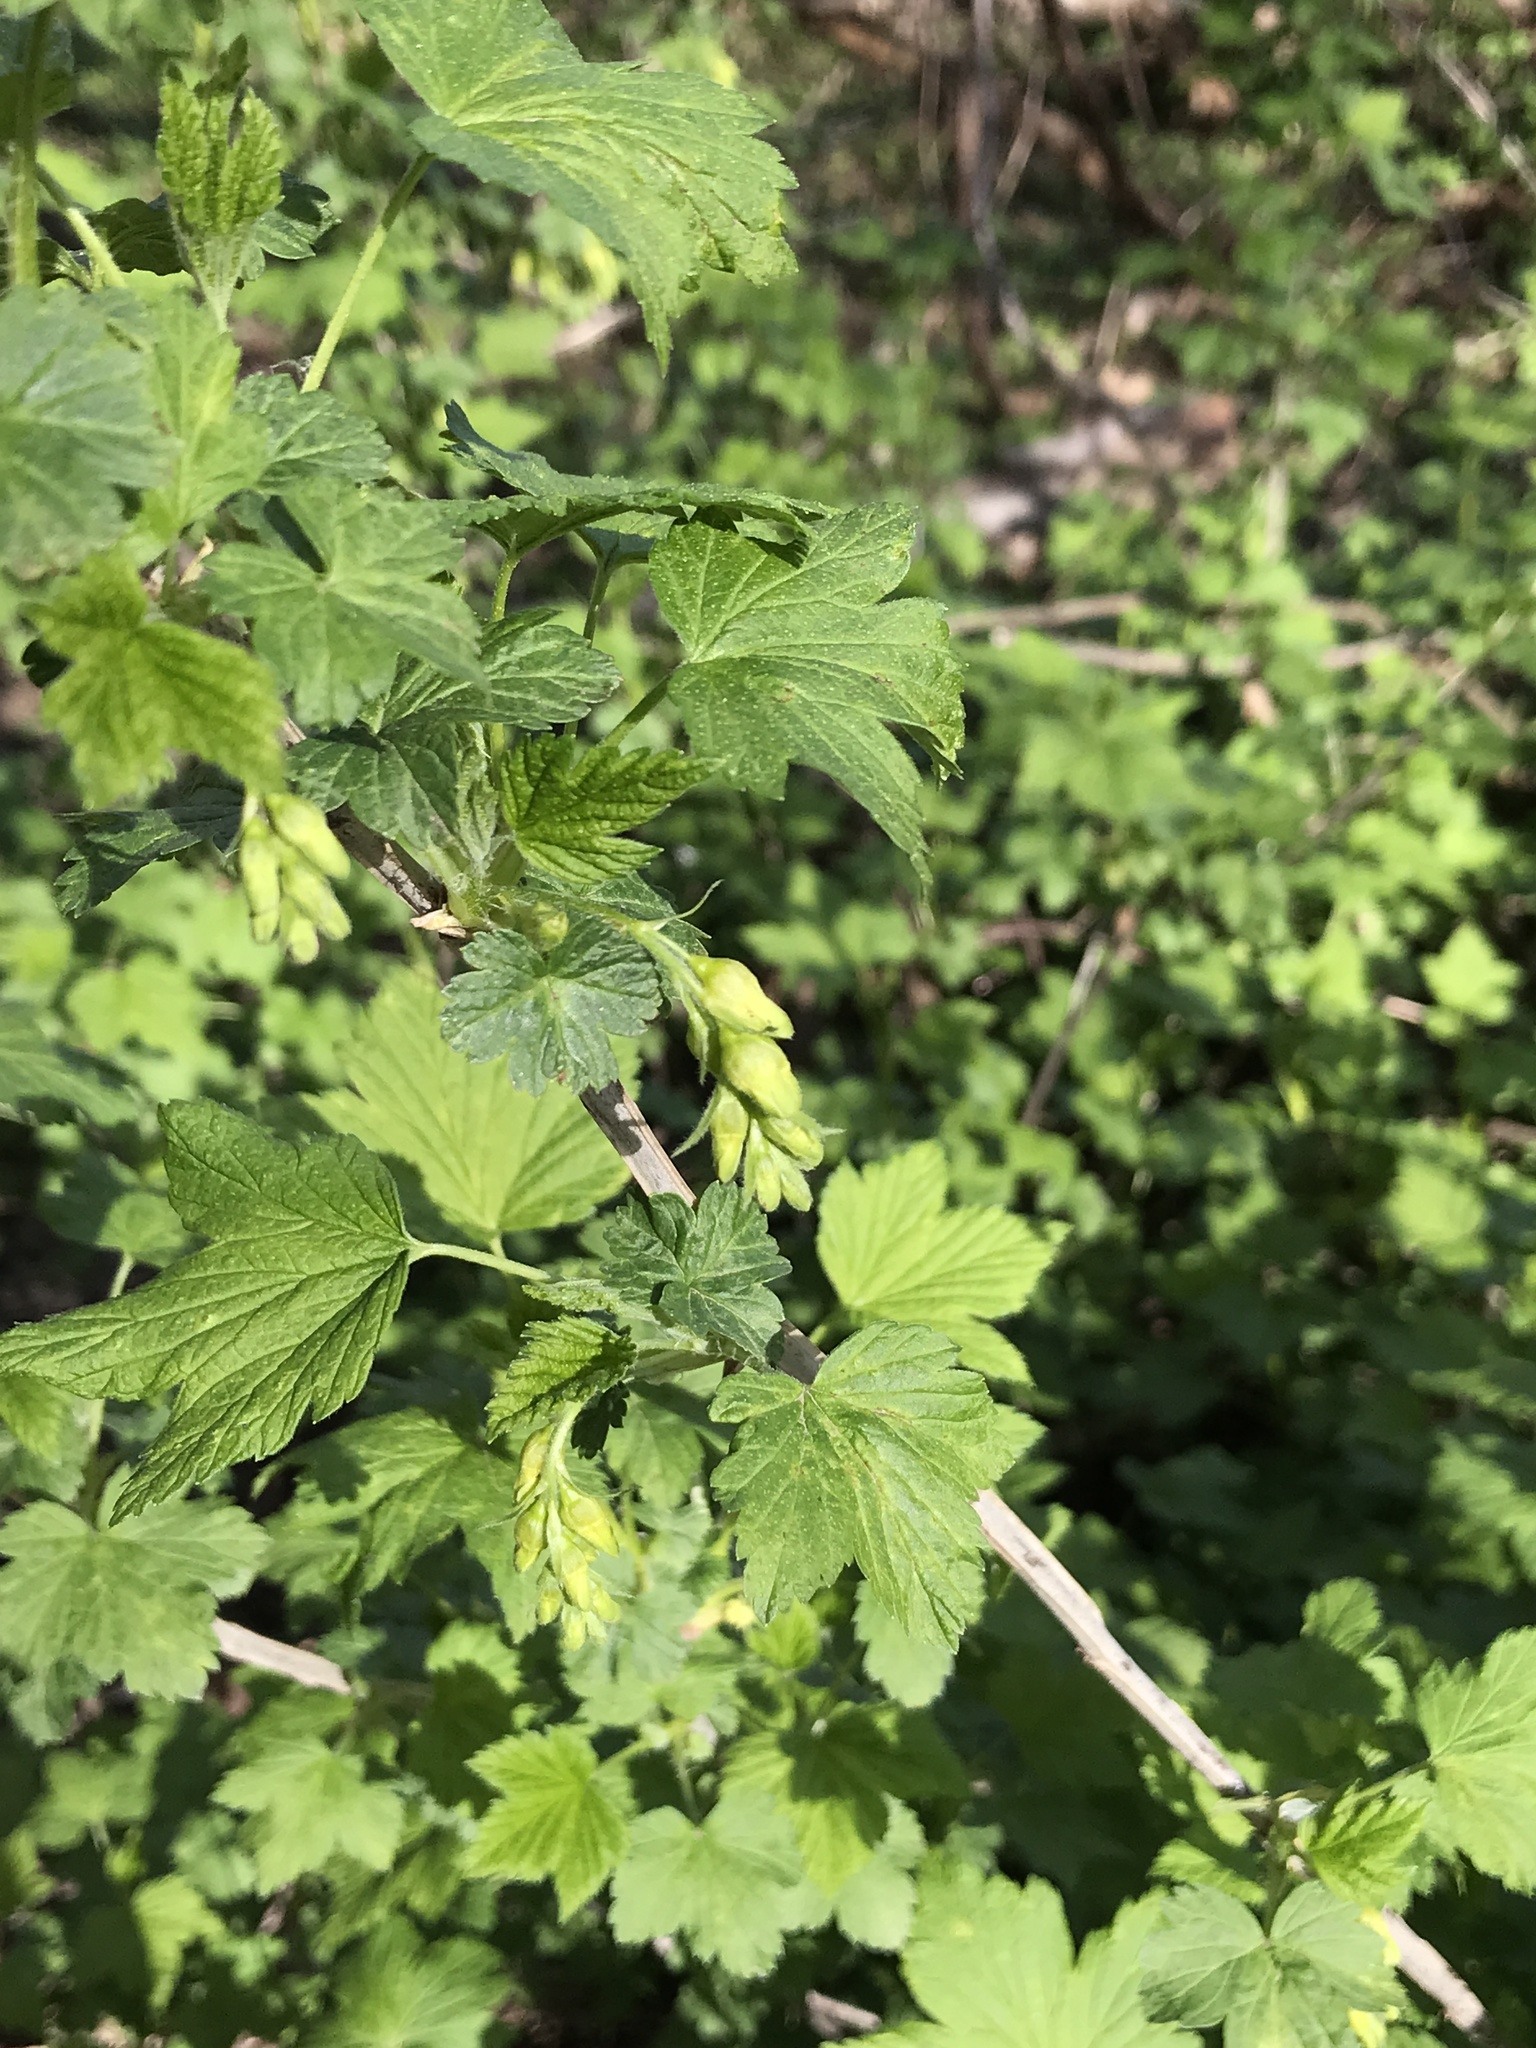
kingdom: Plantae
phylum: Tracheophyta
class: Magnoliopsida
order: Saxifragales
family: Grossulariaceae
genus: Ribes
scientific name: Ribes americanum
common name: American black currant
